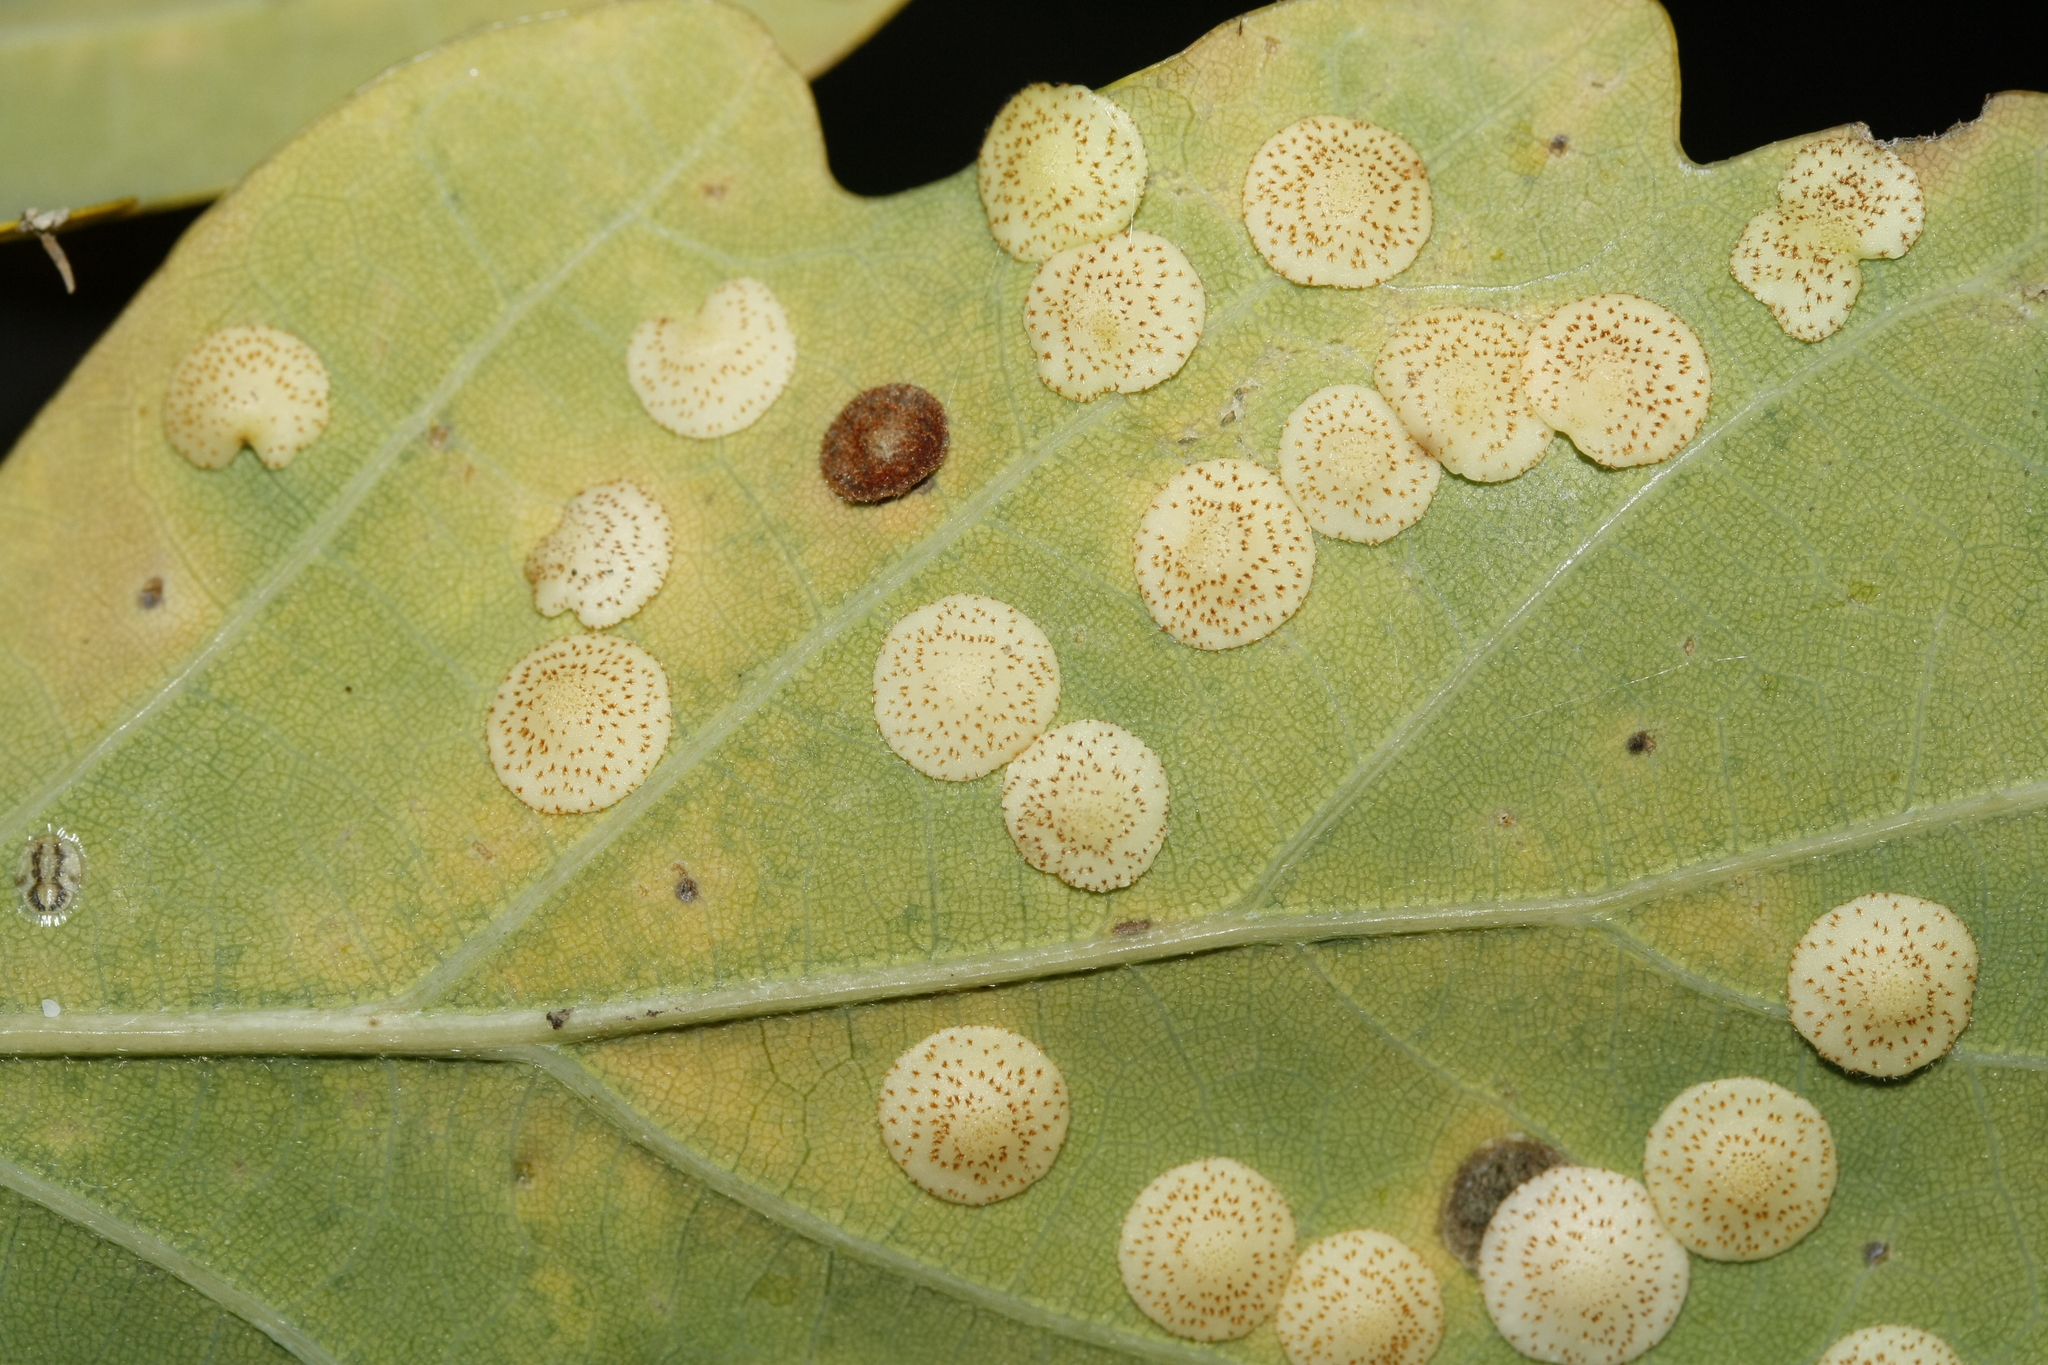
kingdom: Animalia
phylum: Arthropoda
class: Insecta
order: Hymenoptera
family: Cynipidae
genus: Neuroterus
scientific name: Neuroterus quercusbaccarum
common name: Common spangle gall
